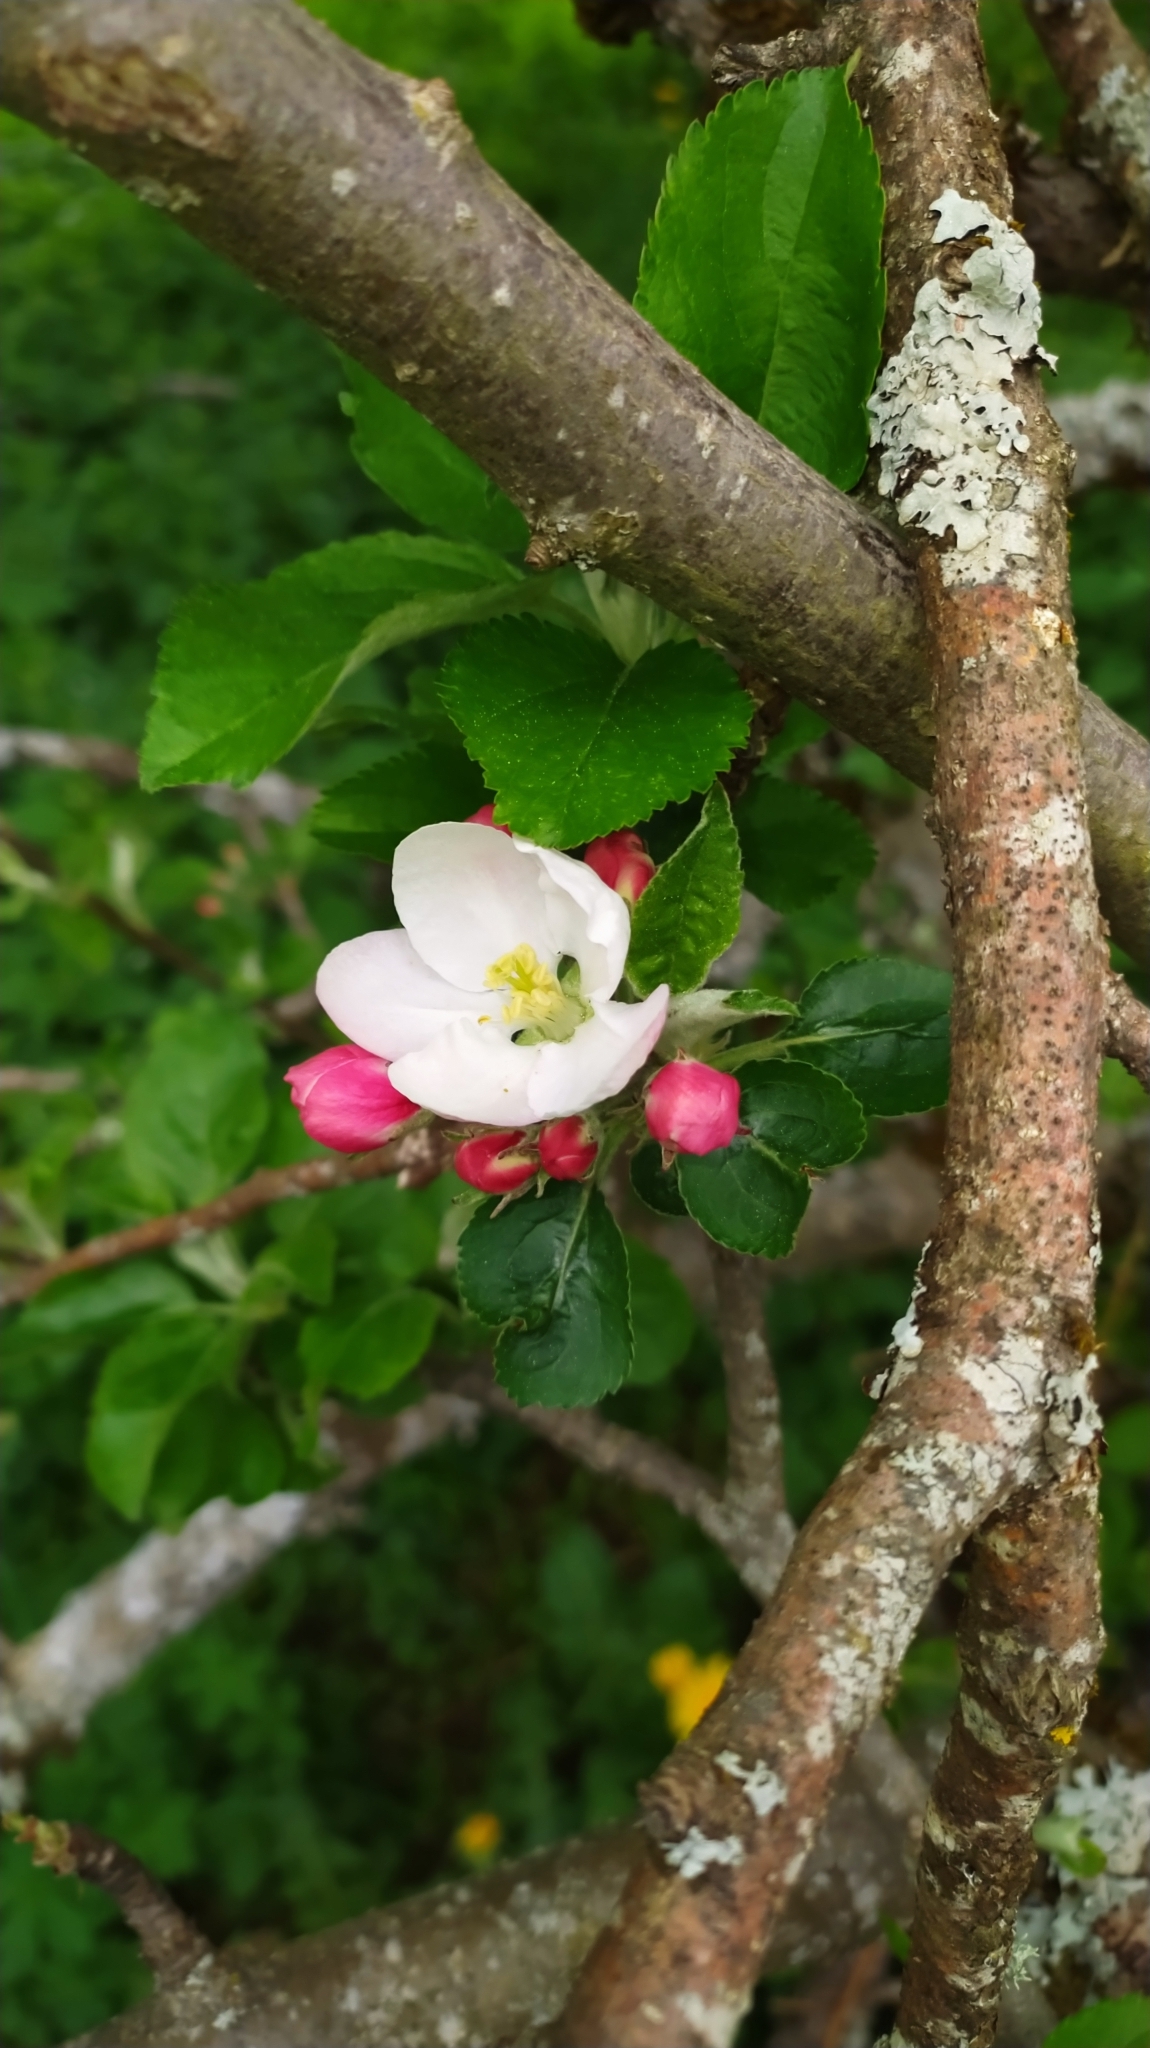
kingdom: Plantae
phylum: Tracheophyta
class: Magnoliopsida
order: Rosales
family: Rosaceae
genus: Malus
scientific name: Malus domestica
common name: Apple
